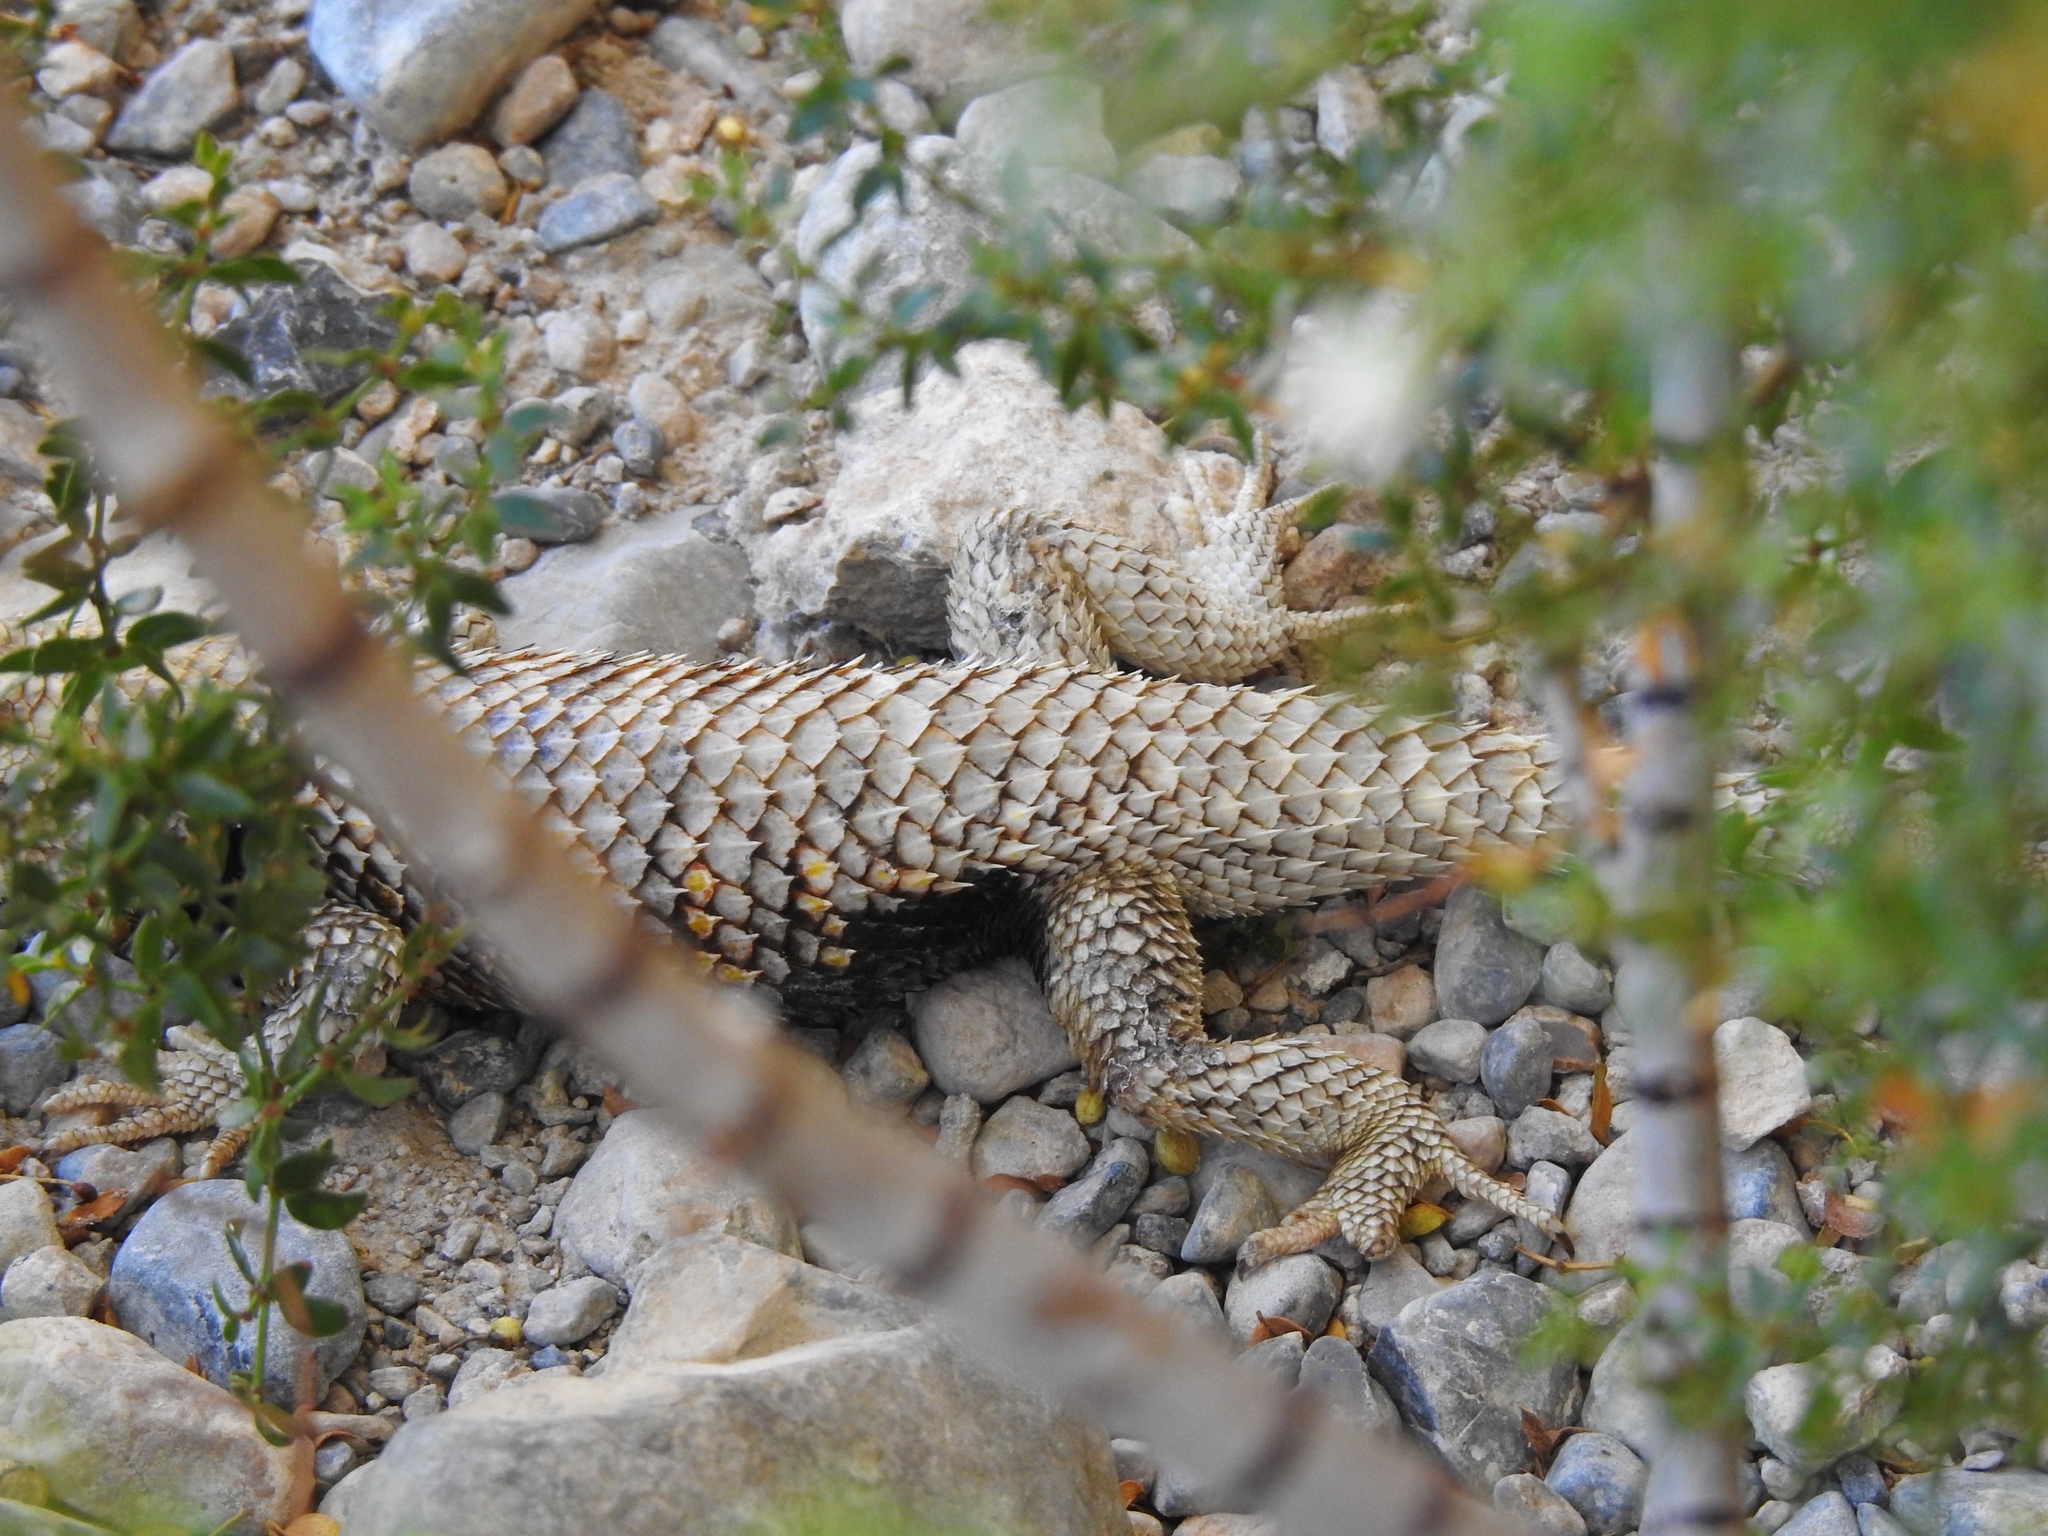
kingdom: Animalia
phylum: Chordata
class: Squamata
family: Phrynosomatidae
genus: Sceloporus
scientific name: Sceloporus uniformis
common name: Yellow-backed spiny lizard
